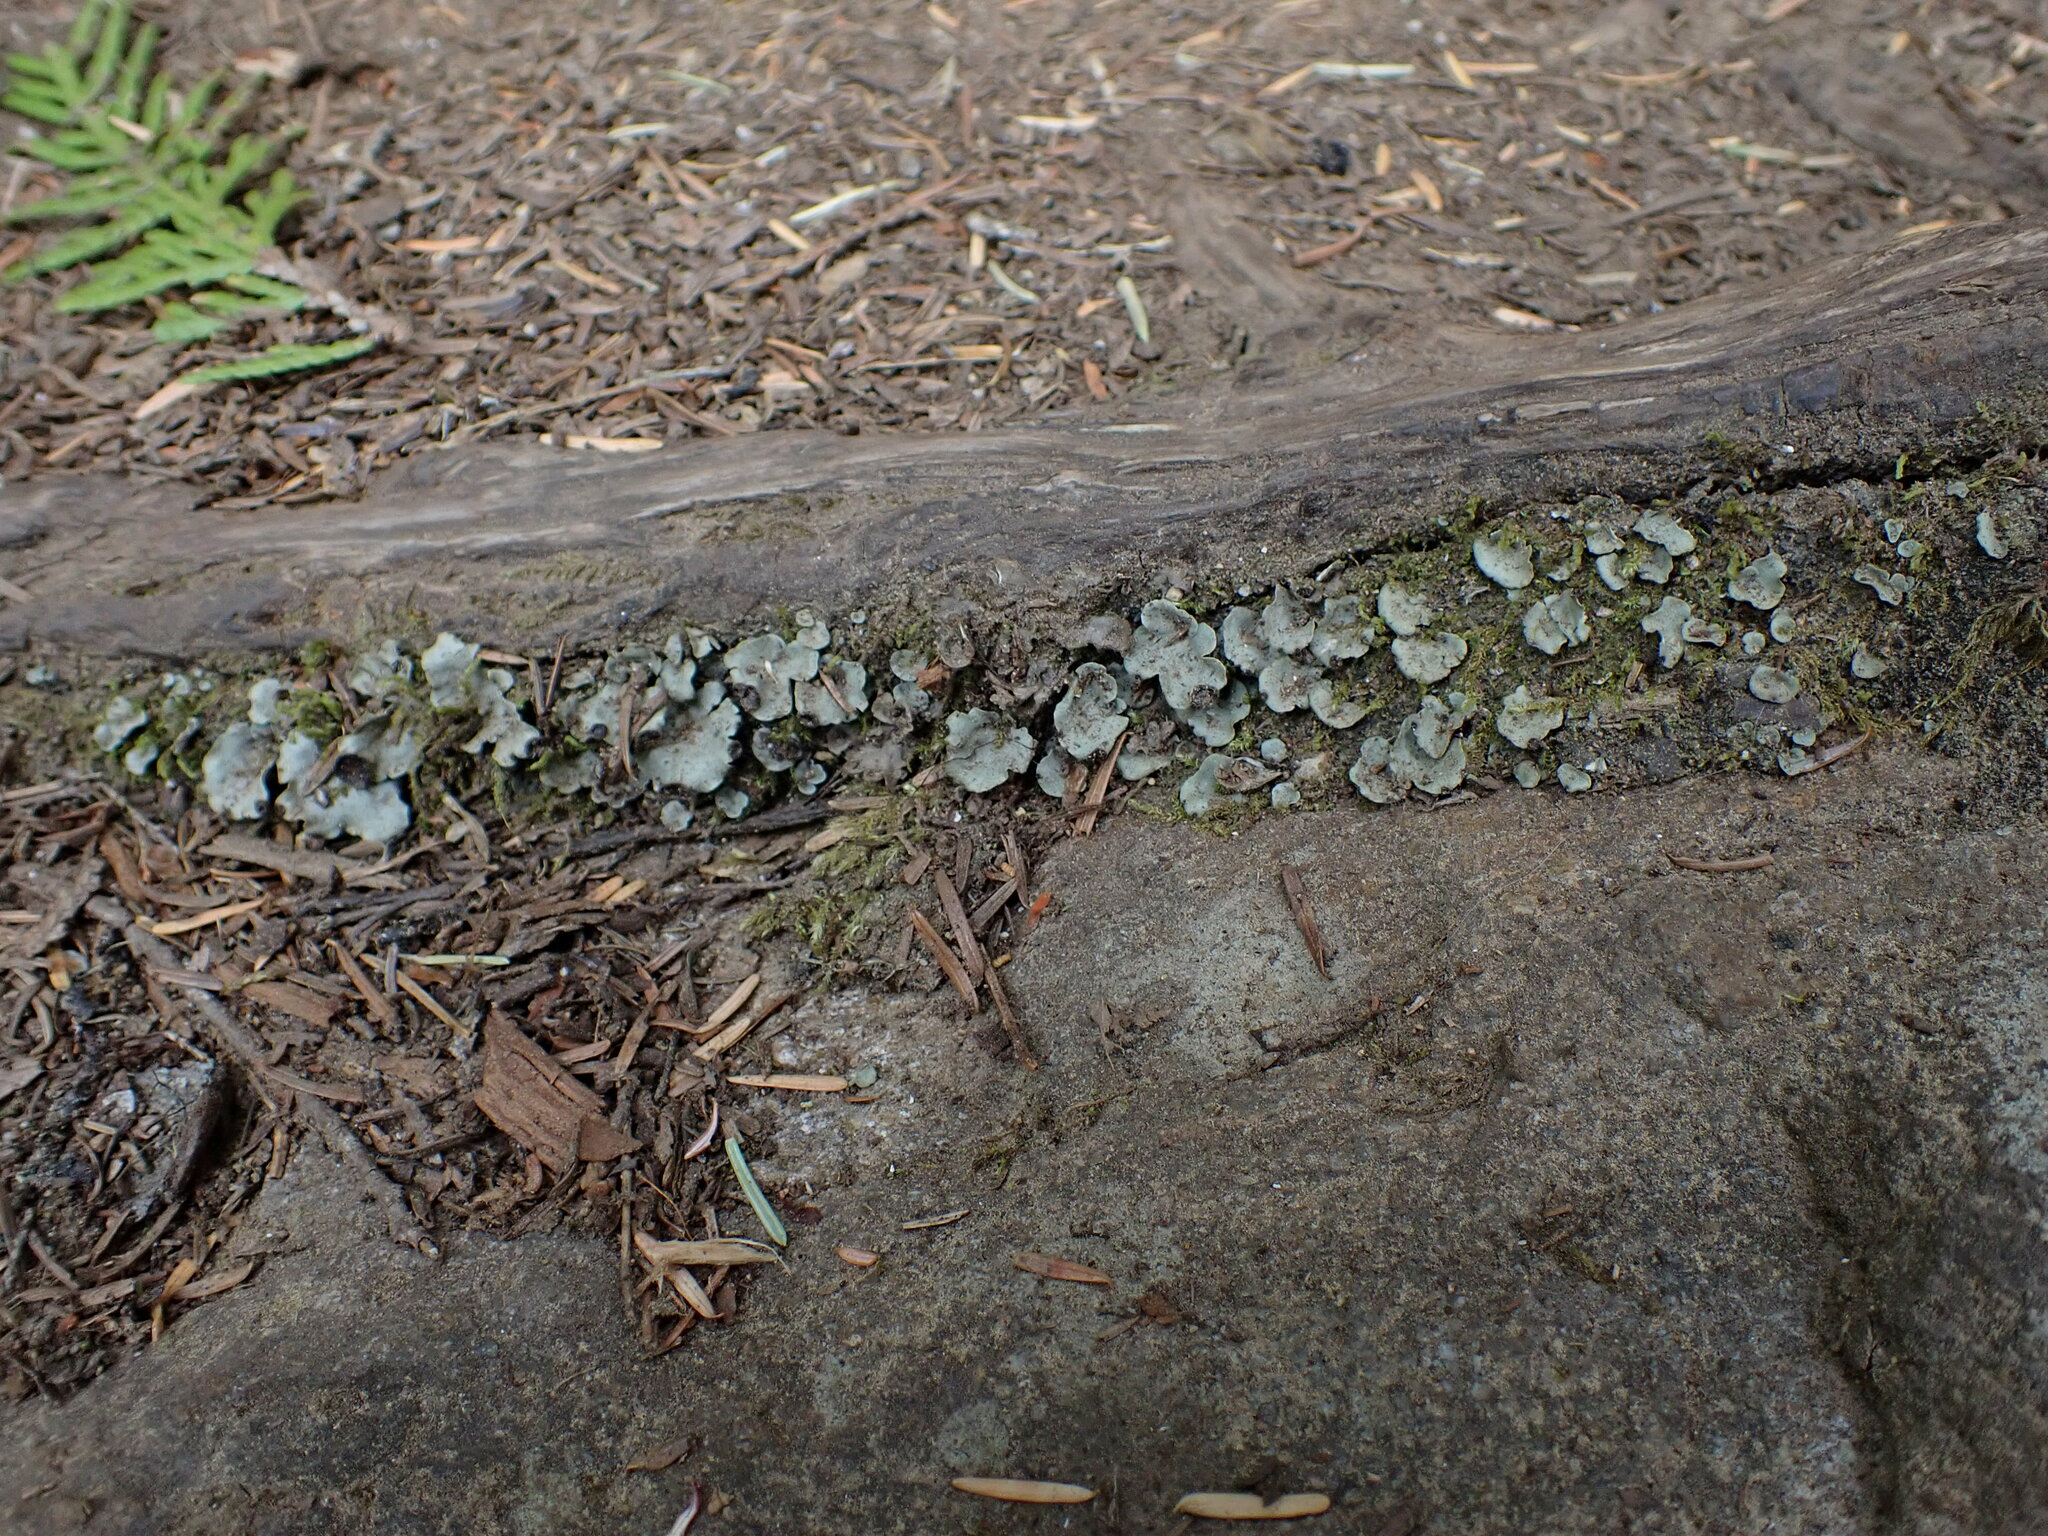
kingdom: Fungi
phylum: Ascomycota
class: Lecanoromycetes
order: Peltigerales
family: Peltigeraceae
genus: Peltigera
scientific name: Peltigera venosa
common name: Pixie gowns lichen
